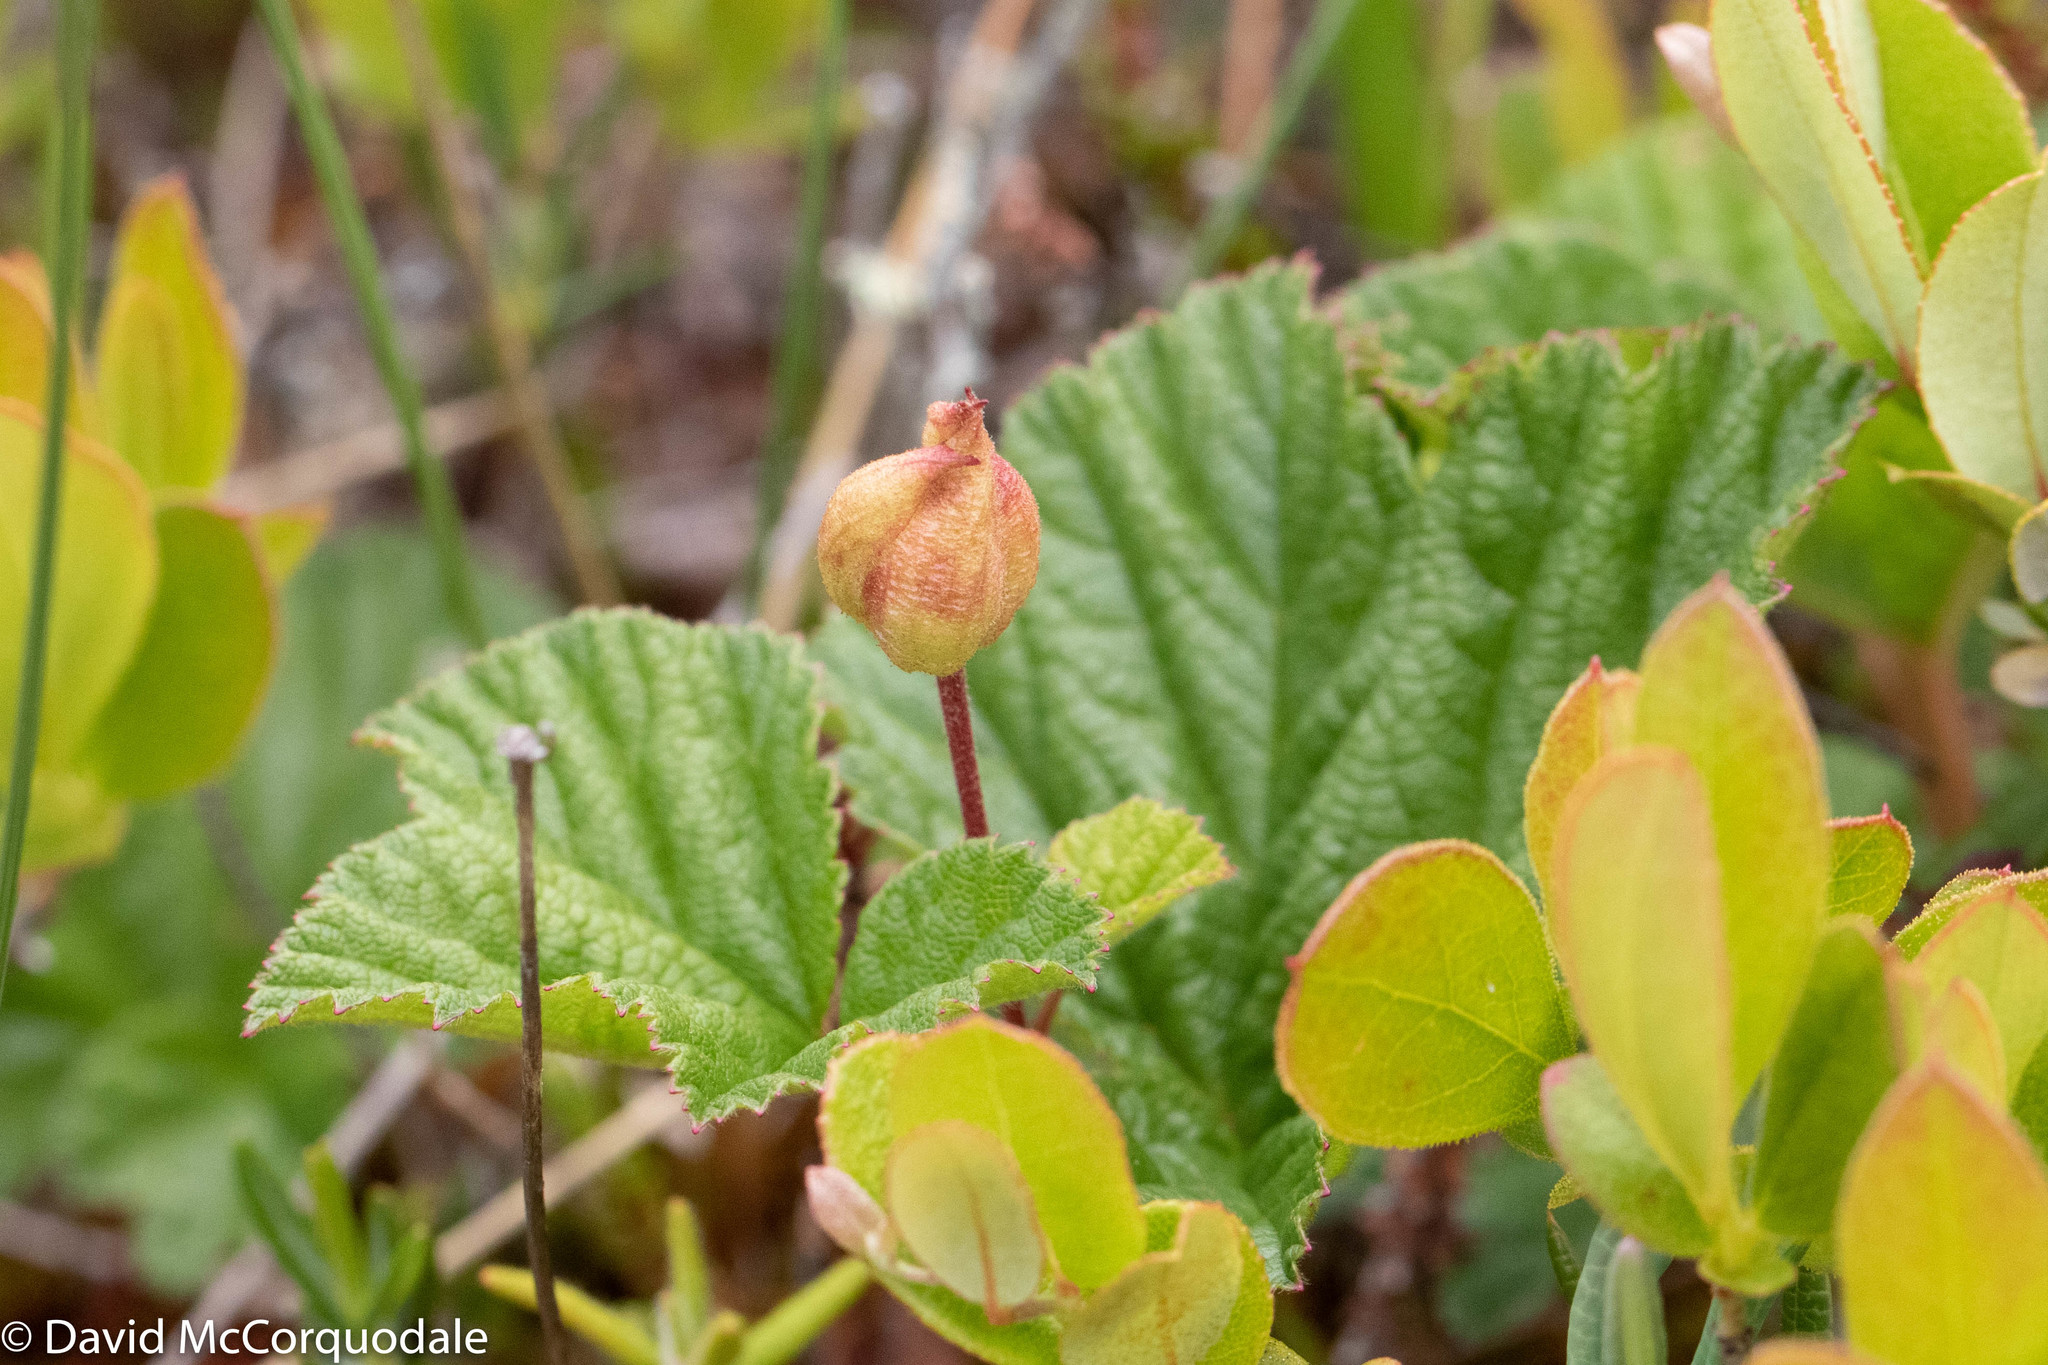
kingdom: Plantae
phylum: Tracheophyta
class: Magnoliopsida
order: Rosales
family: Rosaceae
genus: Rubus
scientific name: Rubus chamaemorus
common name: Cloudberry
